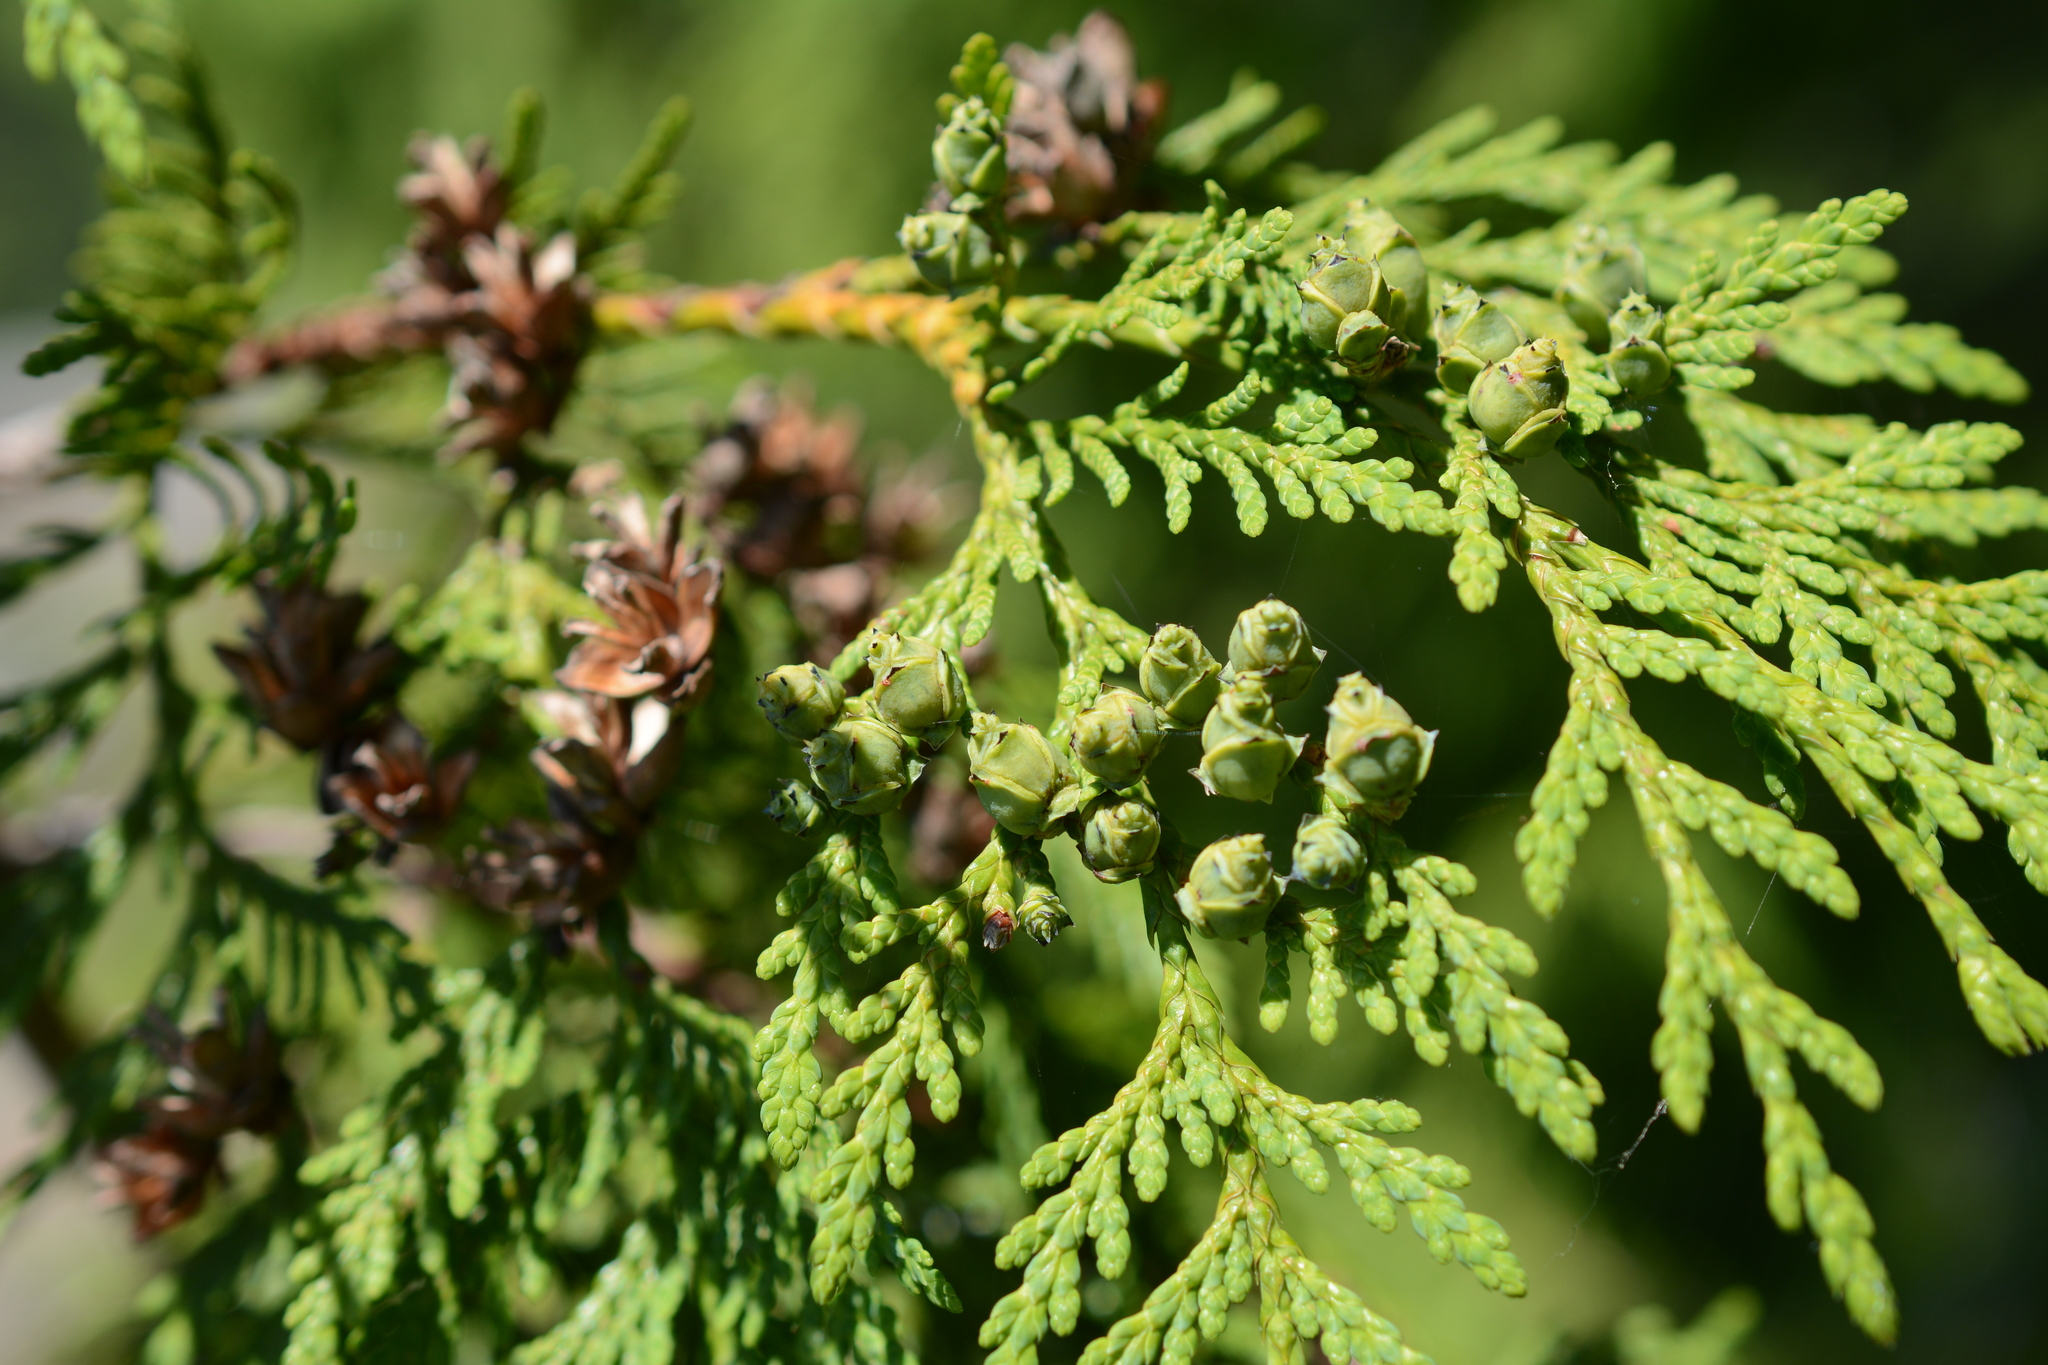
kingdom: Plantae
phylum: Tracheophyta
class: Pinopsida
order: Pinales
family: Cupressaceae
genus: Thuja
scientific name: Thuja plicata
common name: Western red-cedar
